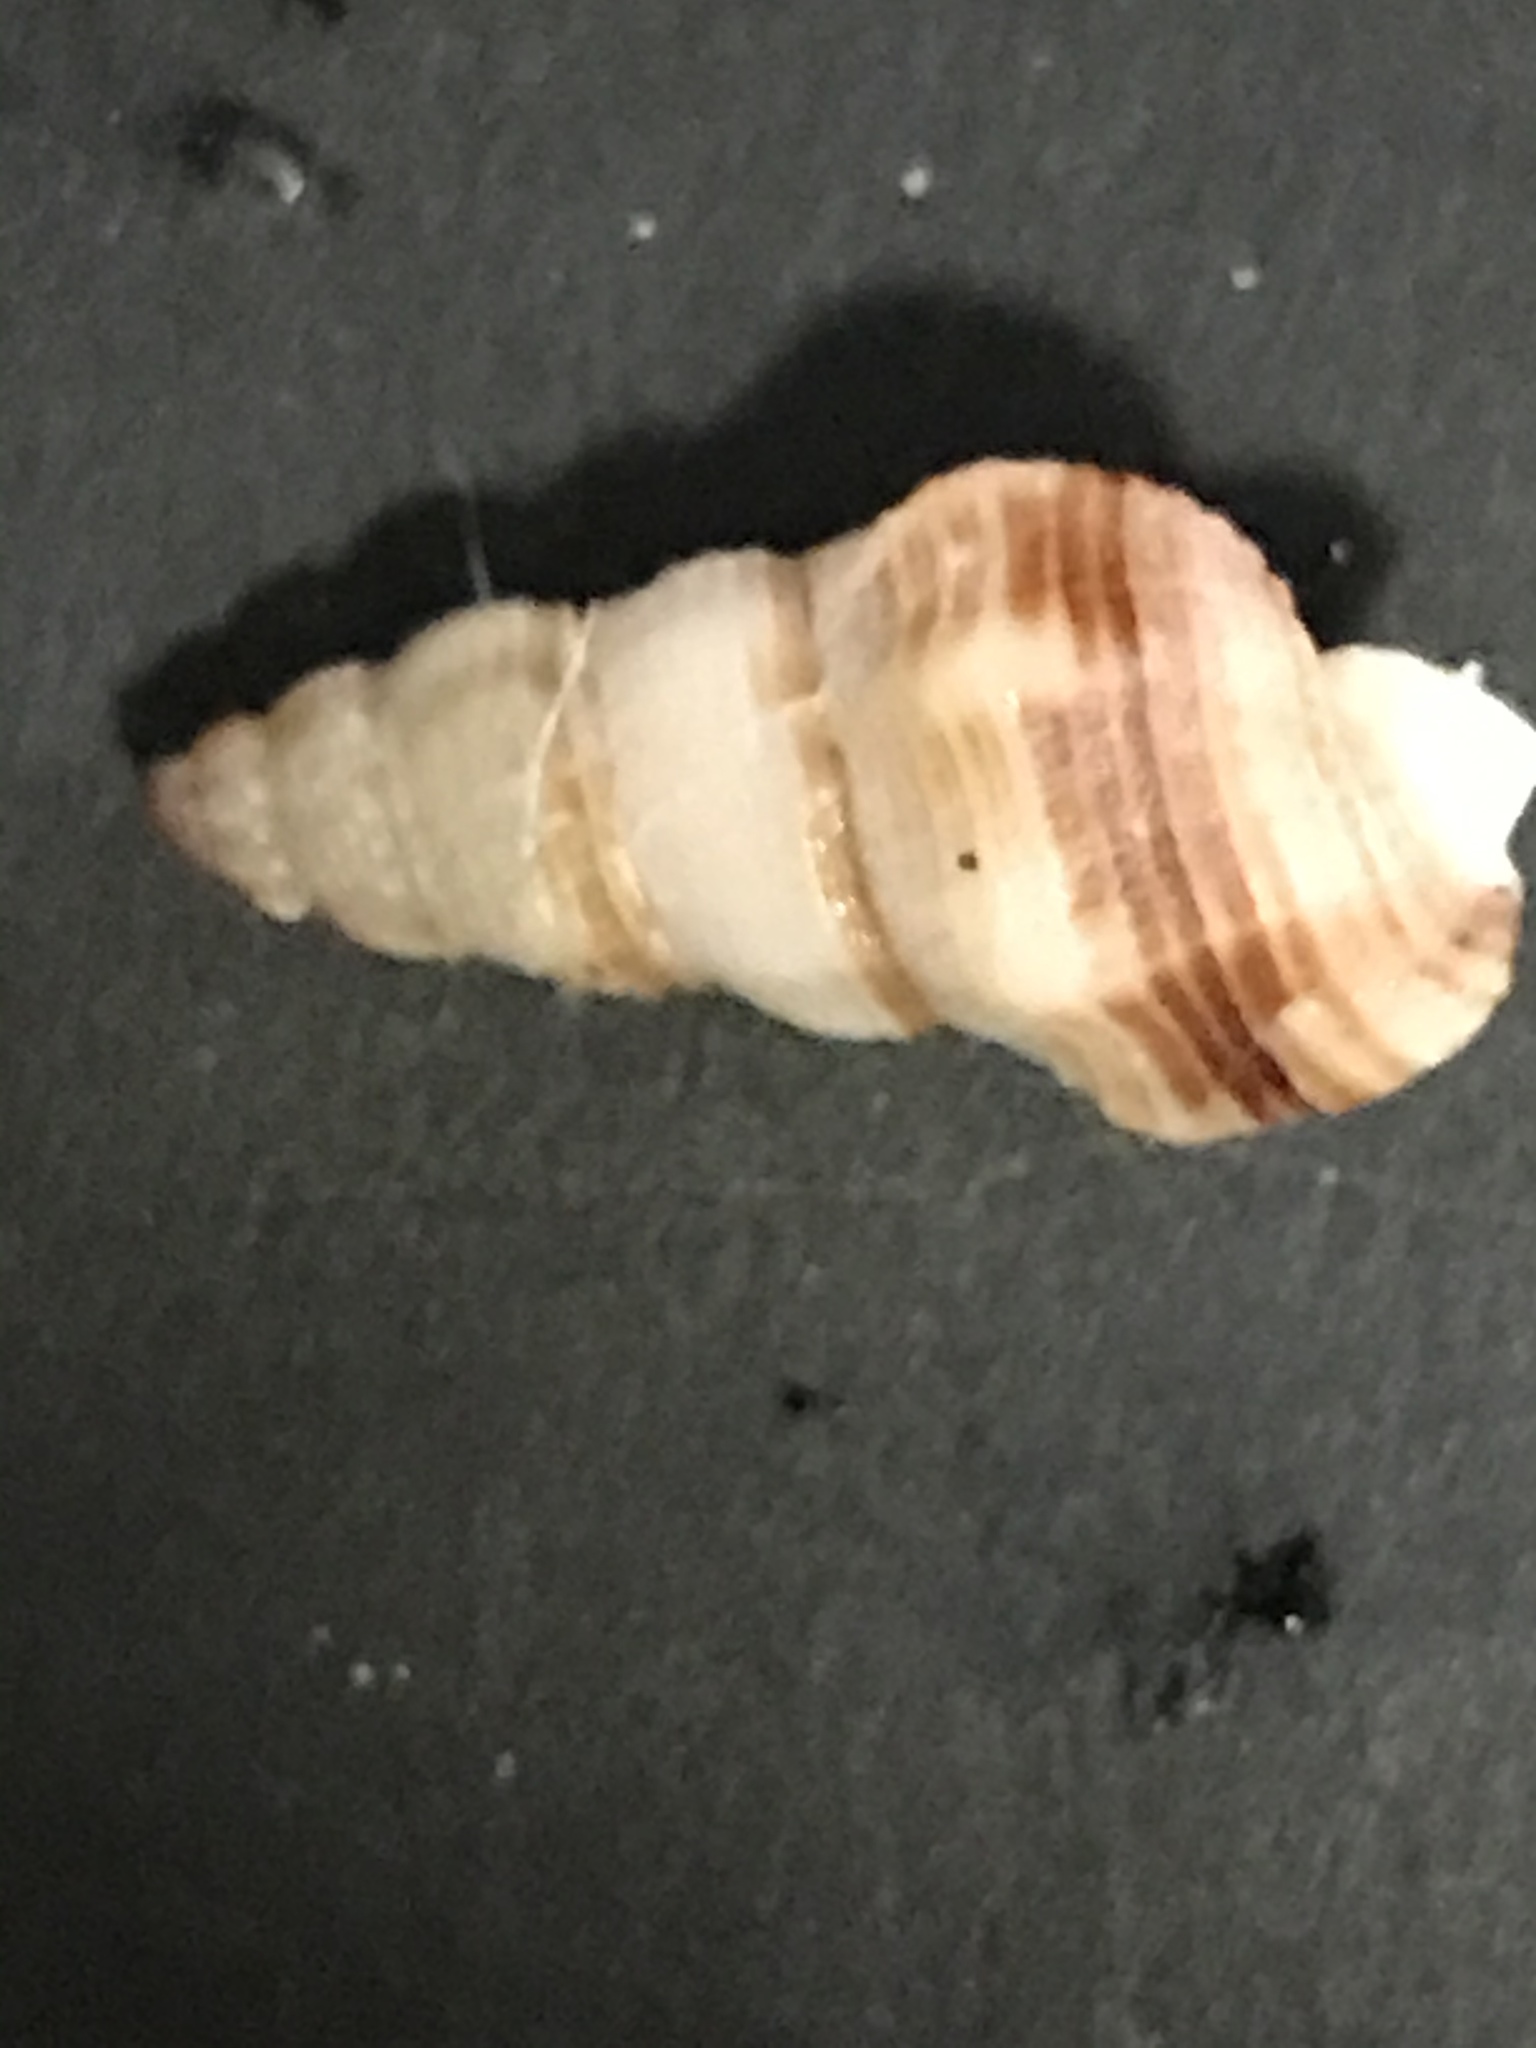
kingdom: Animalia
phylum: Mollusca
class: Gastropoda
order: Neogastropoda
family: Nassariidae
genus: Nassarius
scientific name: Nassarius mendicus
